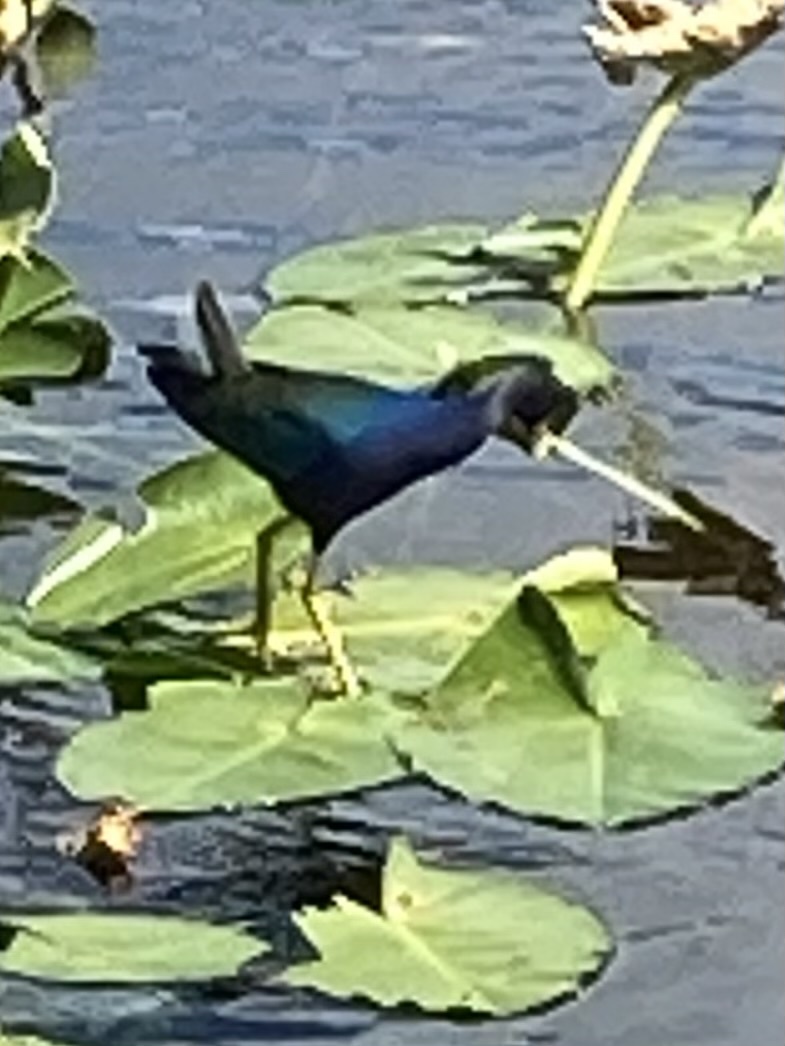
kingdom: Animalia
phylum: Chordata
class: Aves
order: Gruiformes
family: Rallidae
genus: Porphyrio
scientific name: Porphyrio martinica
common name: Purple gallinule
